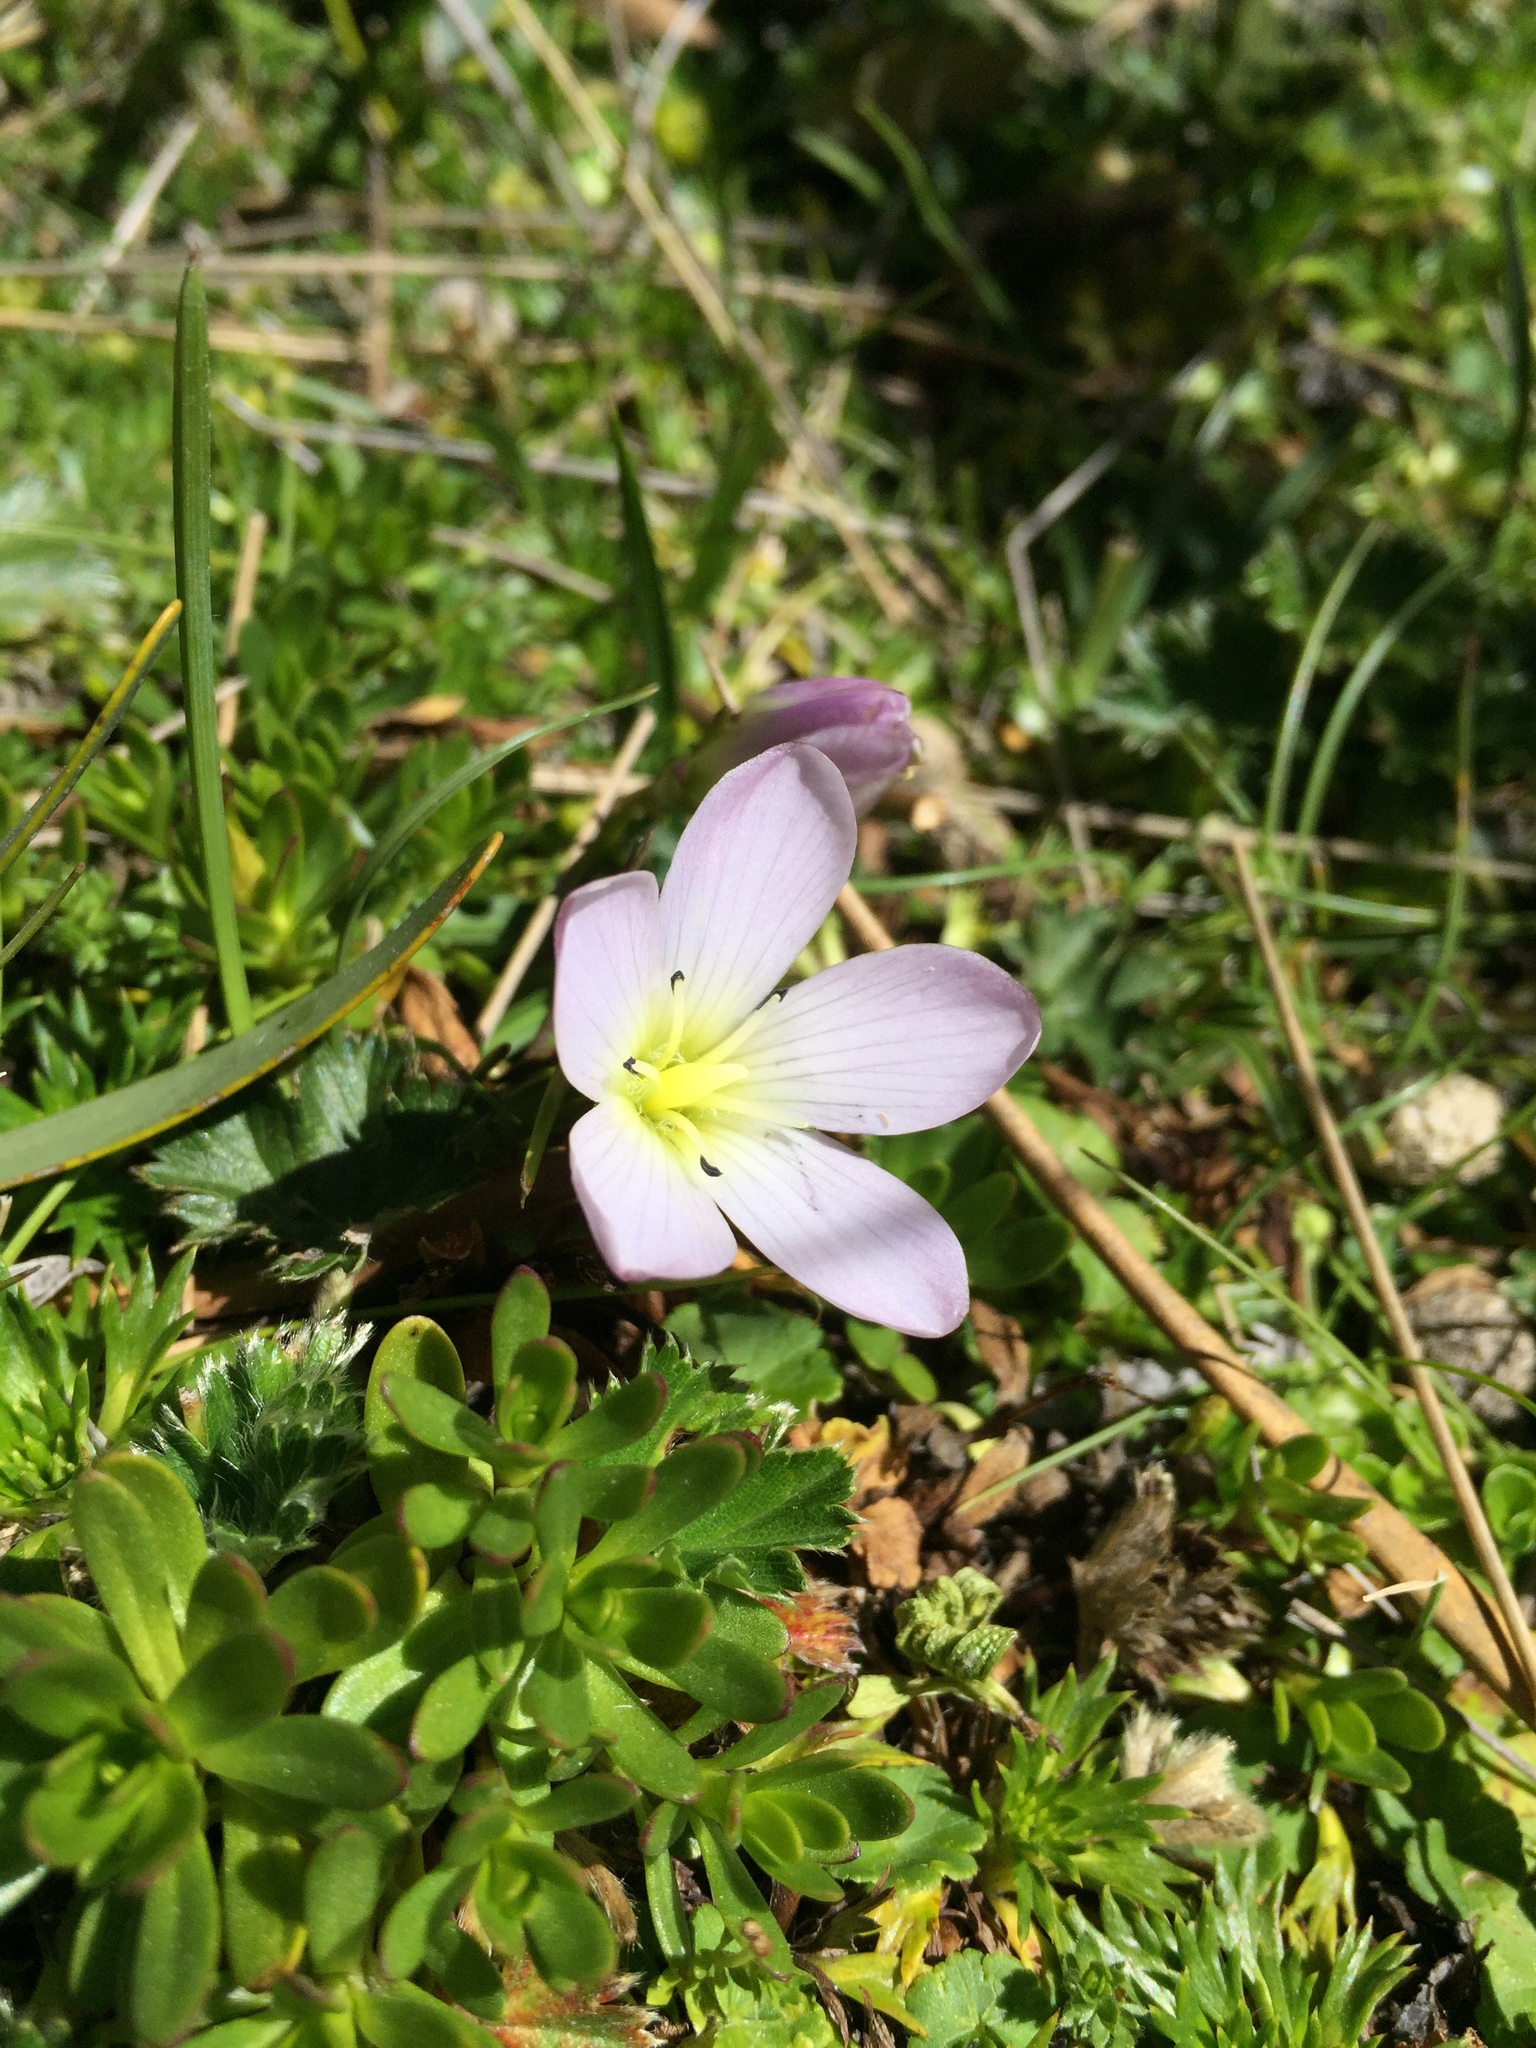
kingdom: Plantae
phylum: Tracheophyta
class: Magnoliopsida
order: Gentianales
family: Gentianaceae
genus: Gentianella
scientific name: Gentianella cerastioides
